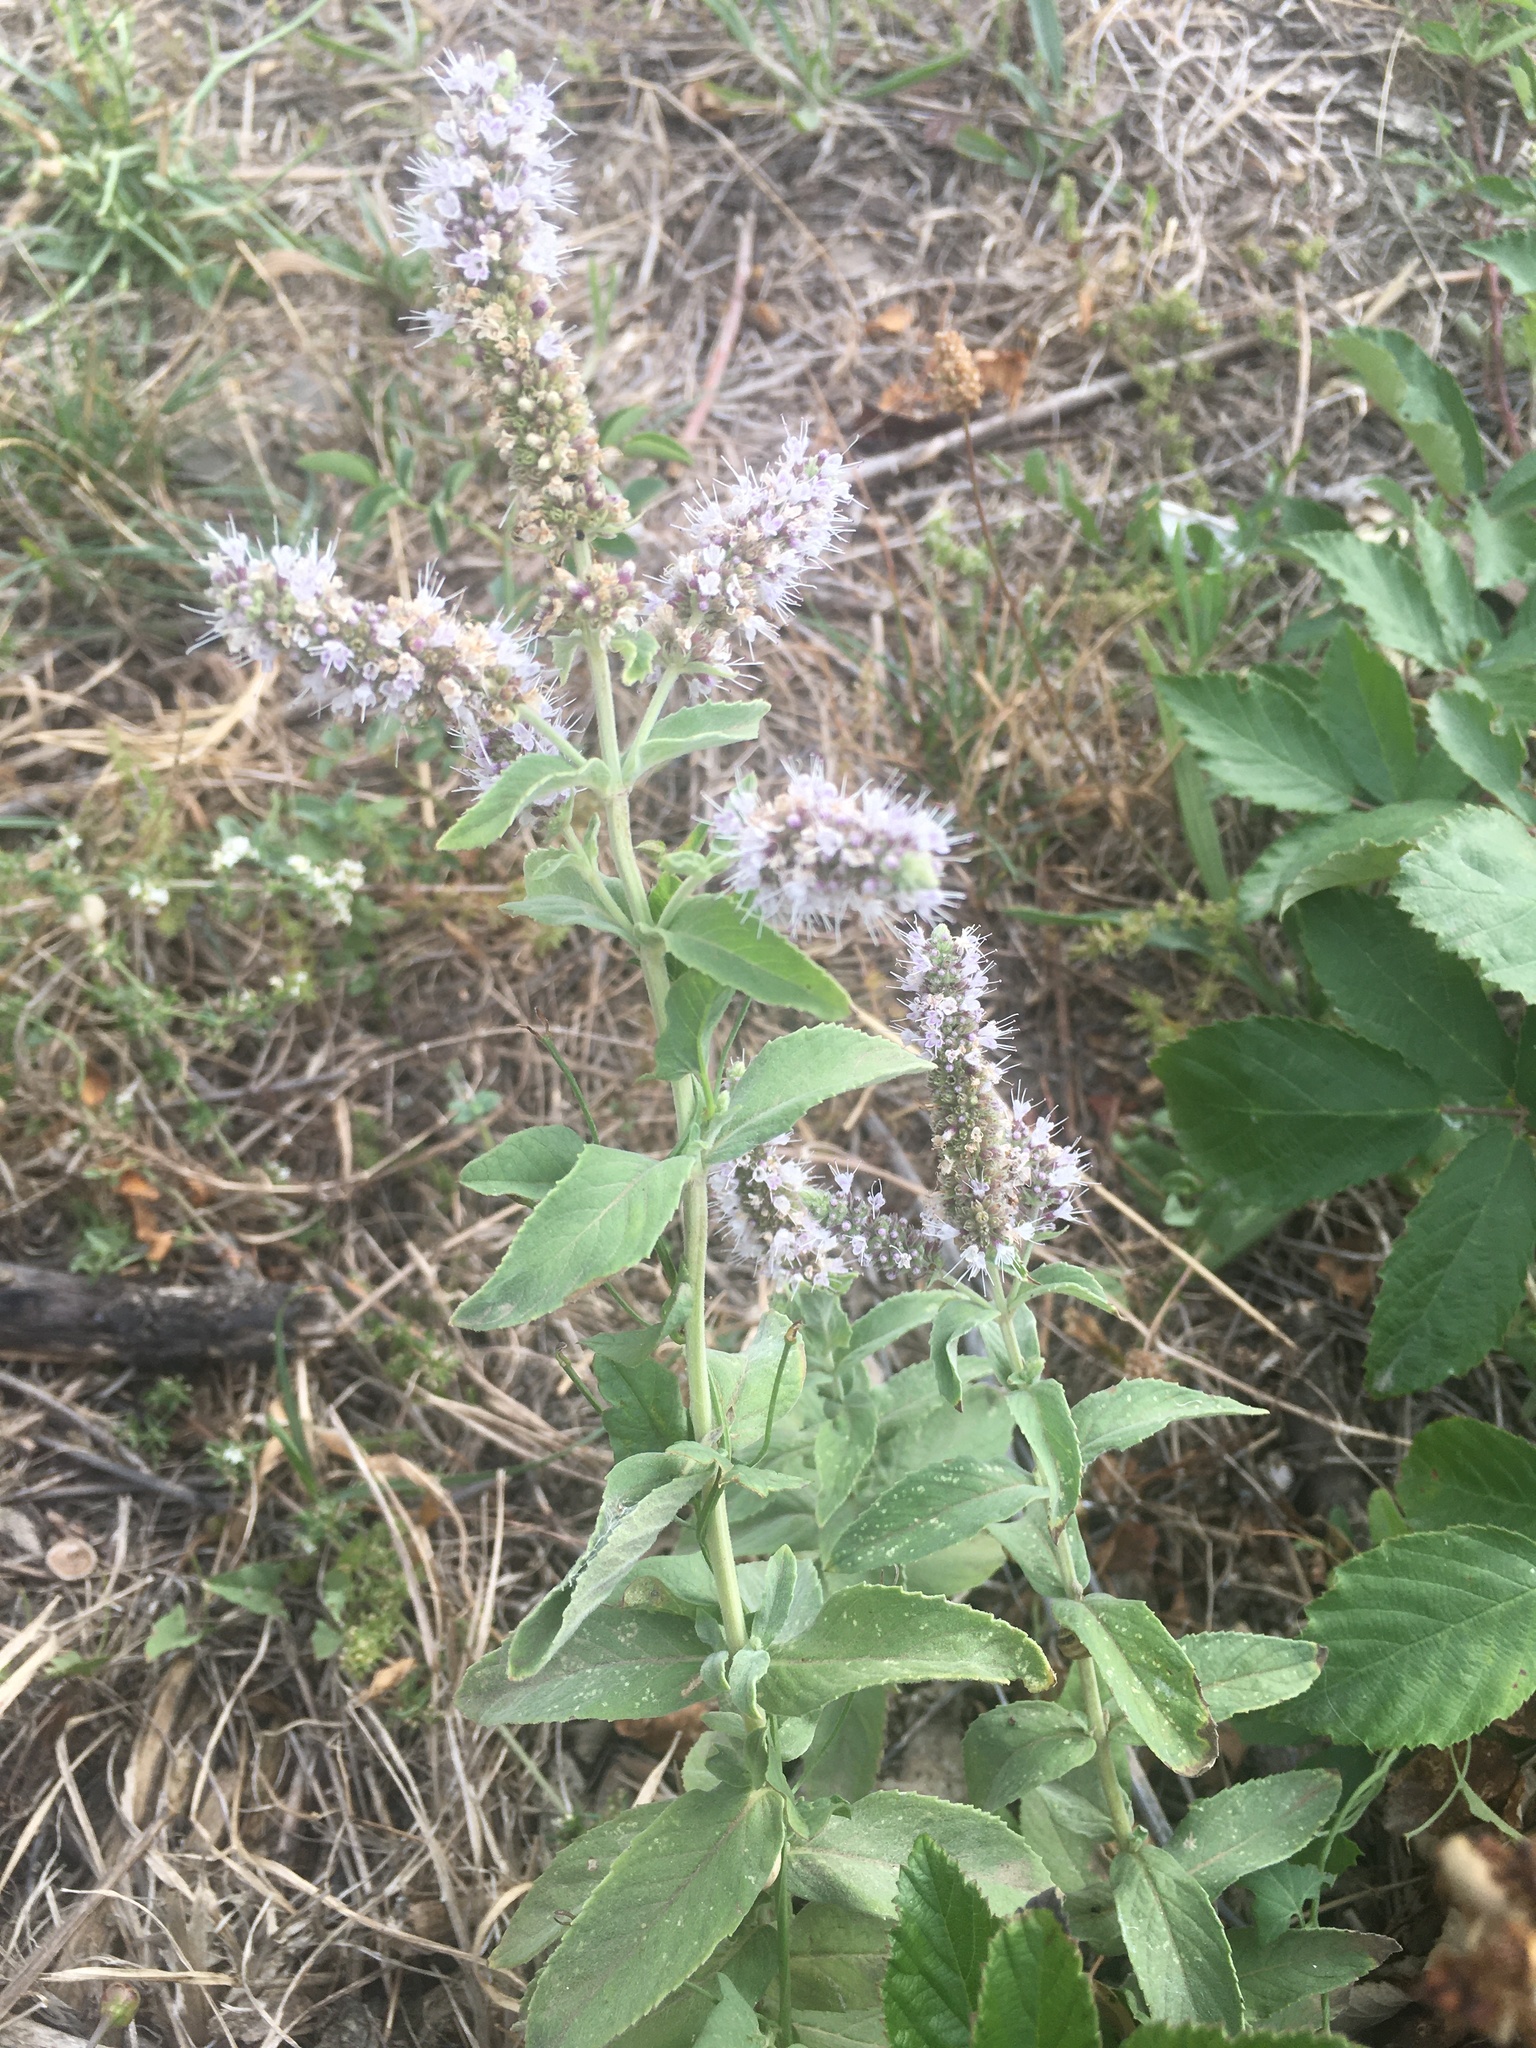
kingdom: Plantae
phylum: Tracheophyta
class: Magnoliopsida
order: Lamiales
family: Lamiaceae
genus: Mentha
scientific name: Mentha longifolia
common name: Horse mint
